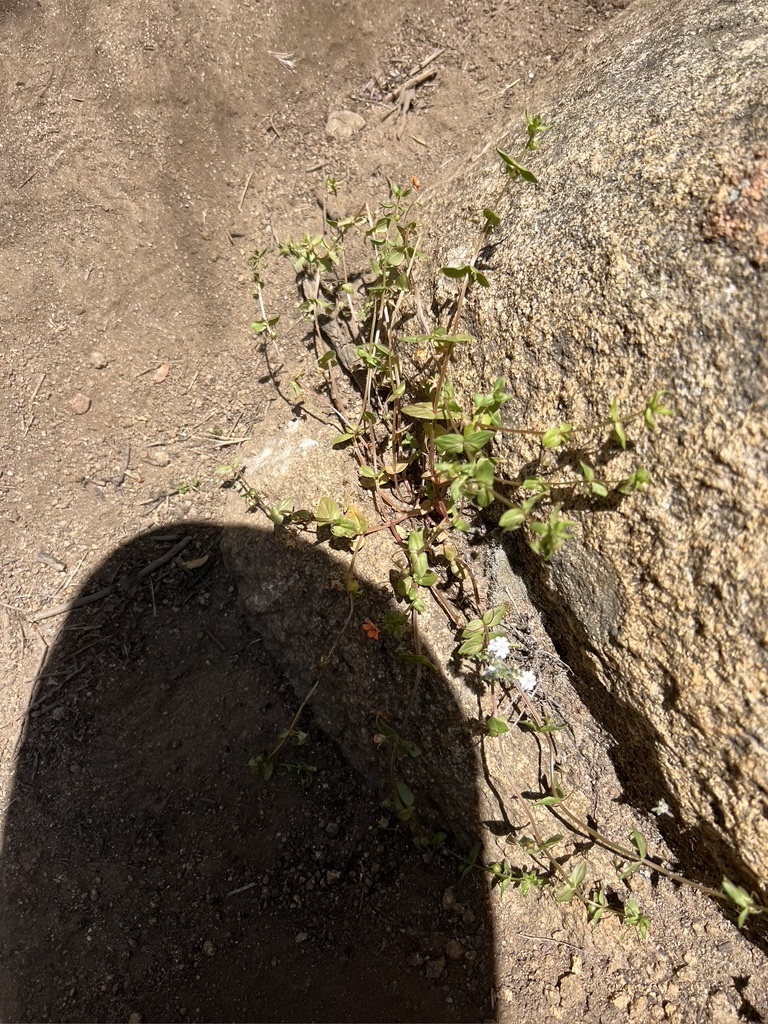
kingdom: Plantae
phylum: Tracheophyta
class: Magnoliopsida
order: Ericales
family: Primulaceae
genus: Lysimachia
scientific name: Lysimachia arvensis
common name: Scarlet pimpernel
